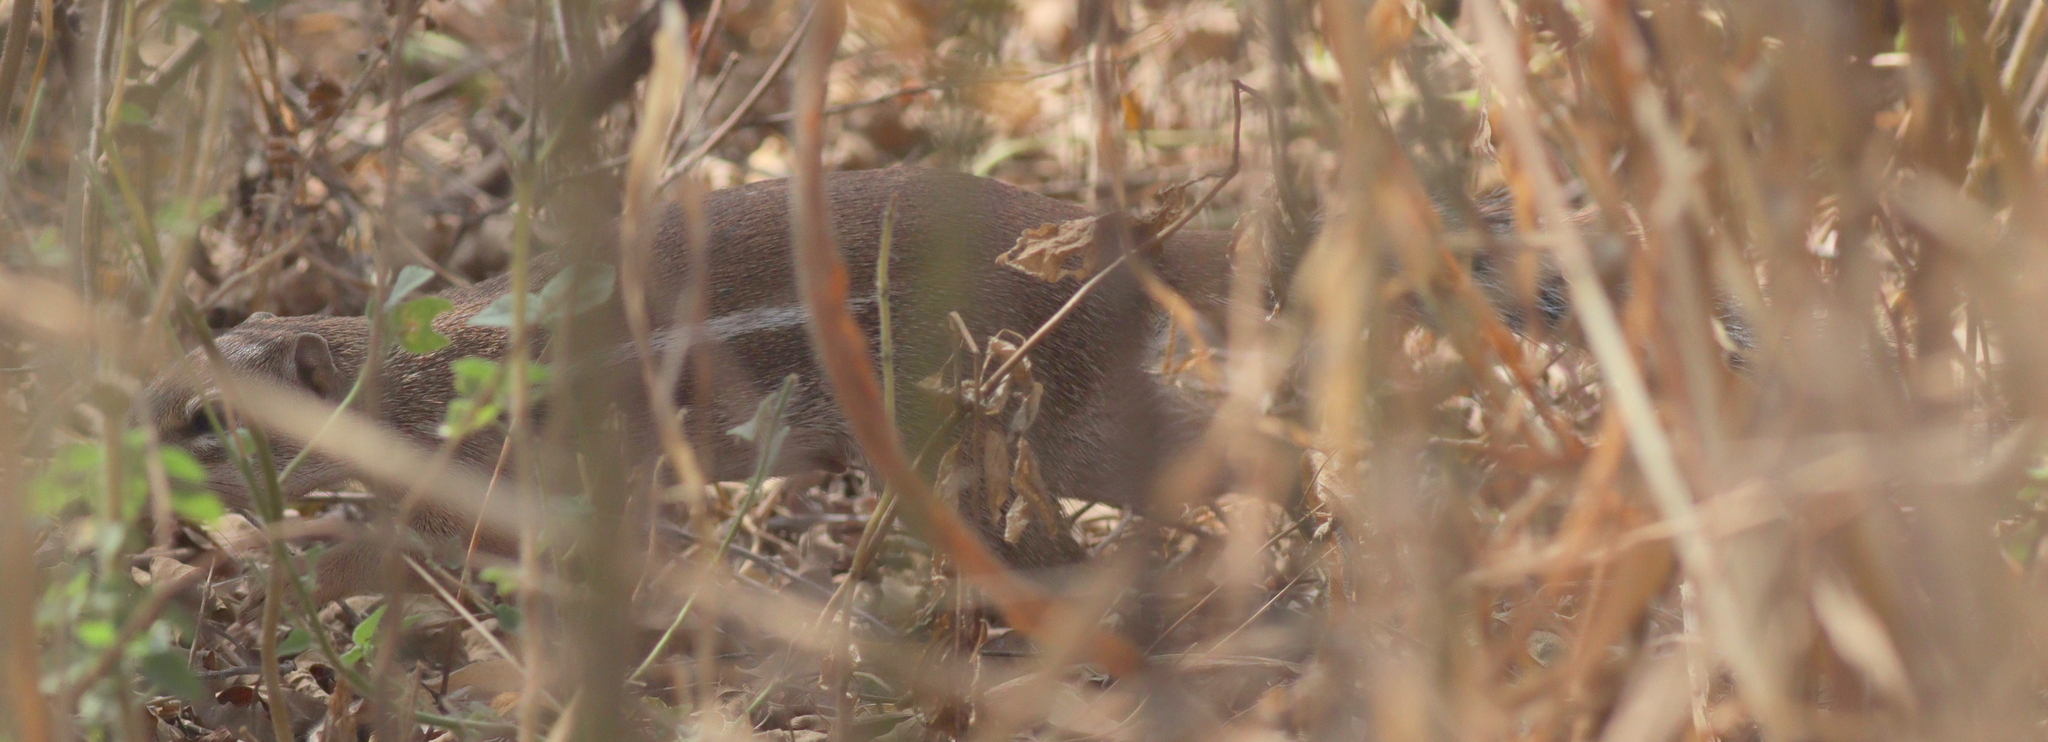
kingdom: Animalia
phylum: Chordata
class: Mammalia
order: Rodentia
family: Sciuridae
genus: Xerus
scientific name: Xerus erythropus
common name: Striped ground squirrel
